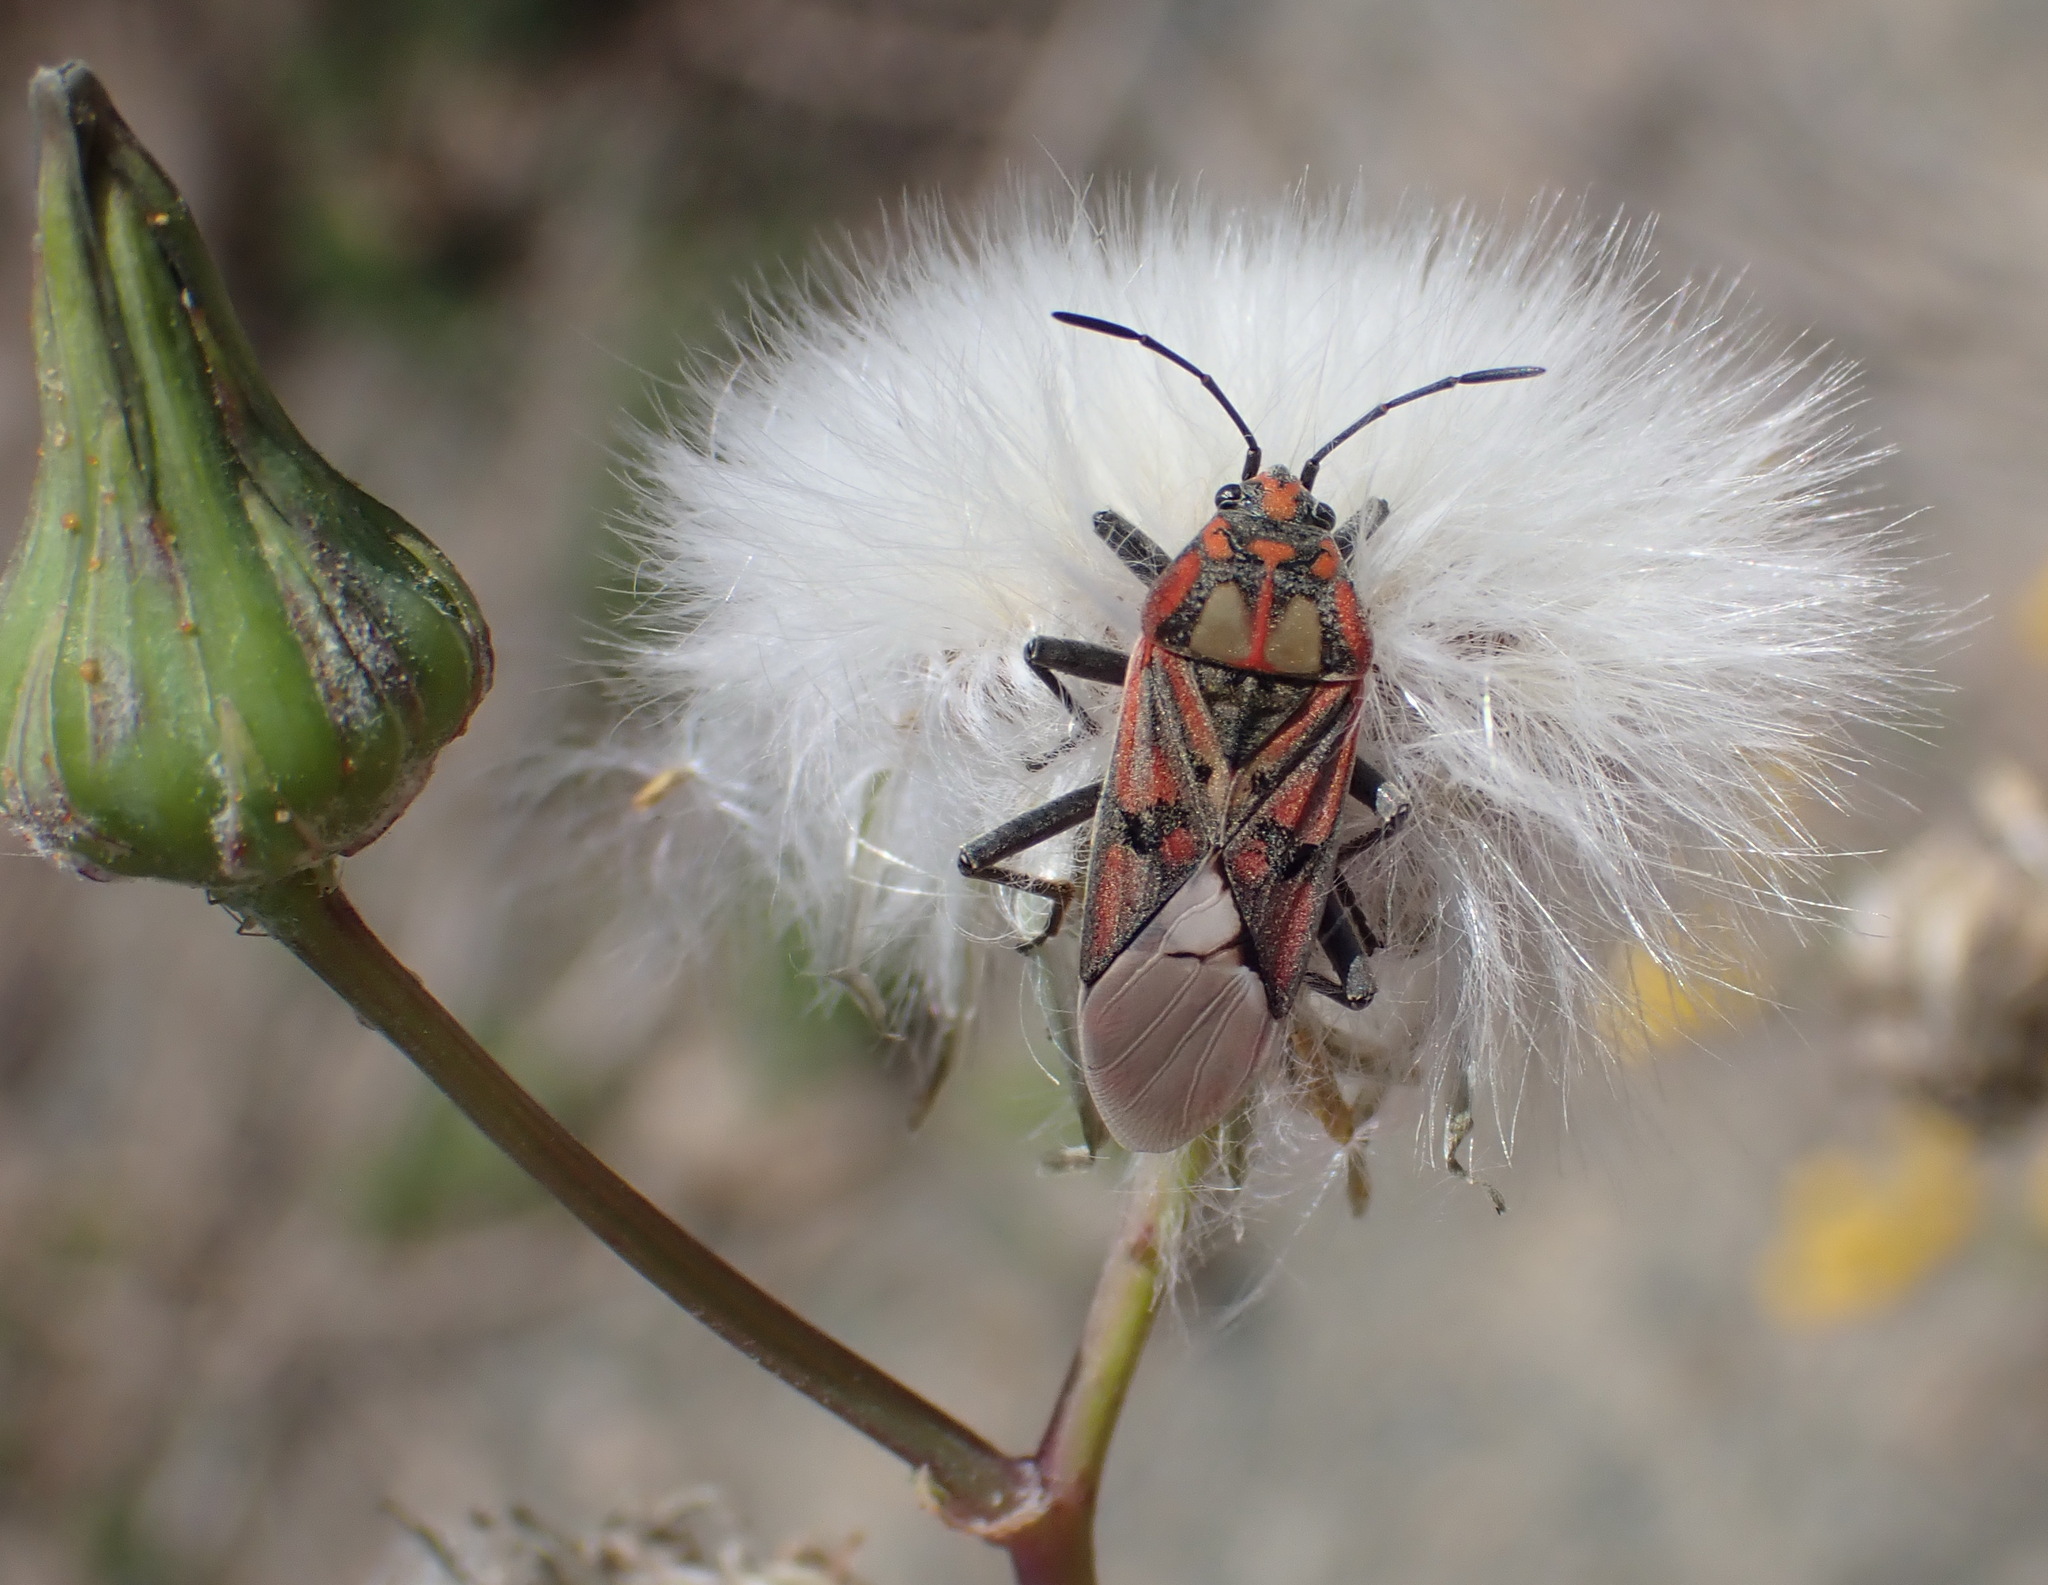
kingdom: Animalia
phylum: Arthropoda
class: Insecta
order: Hemiptera
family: Lygaeidae
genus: Spilostethus
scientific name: Spilostethus pandurus
